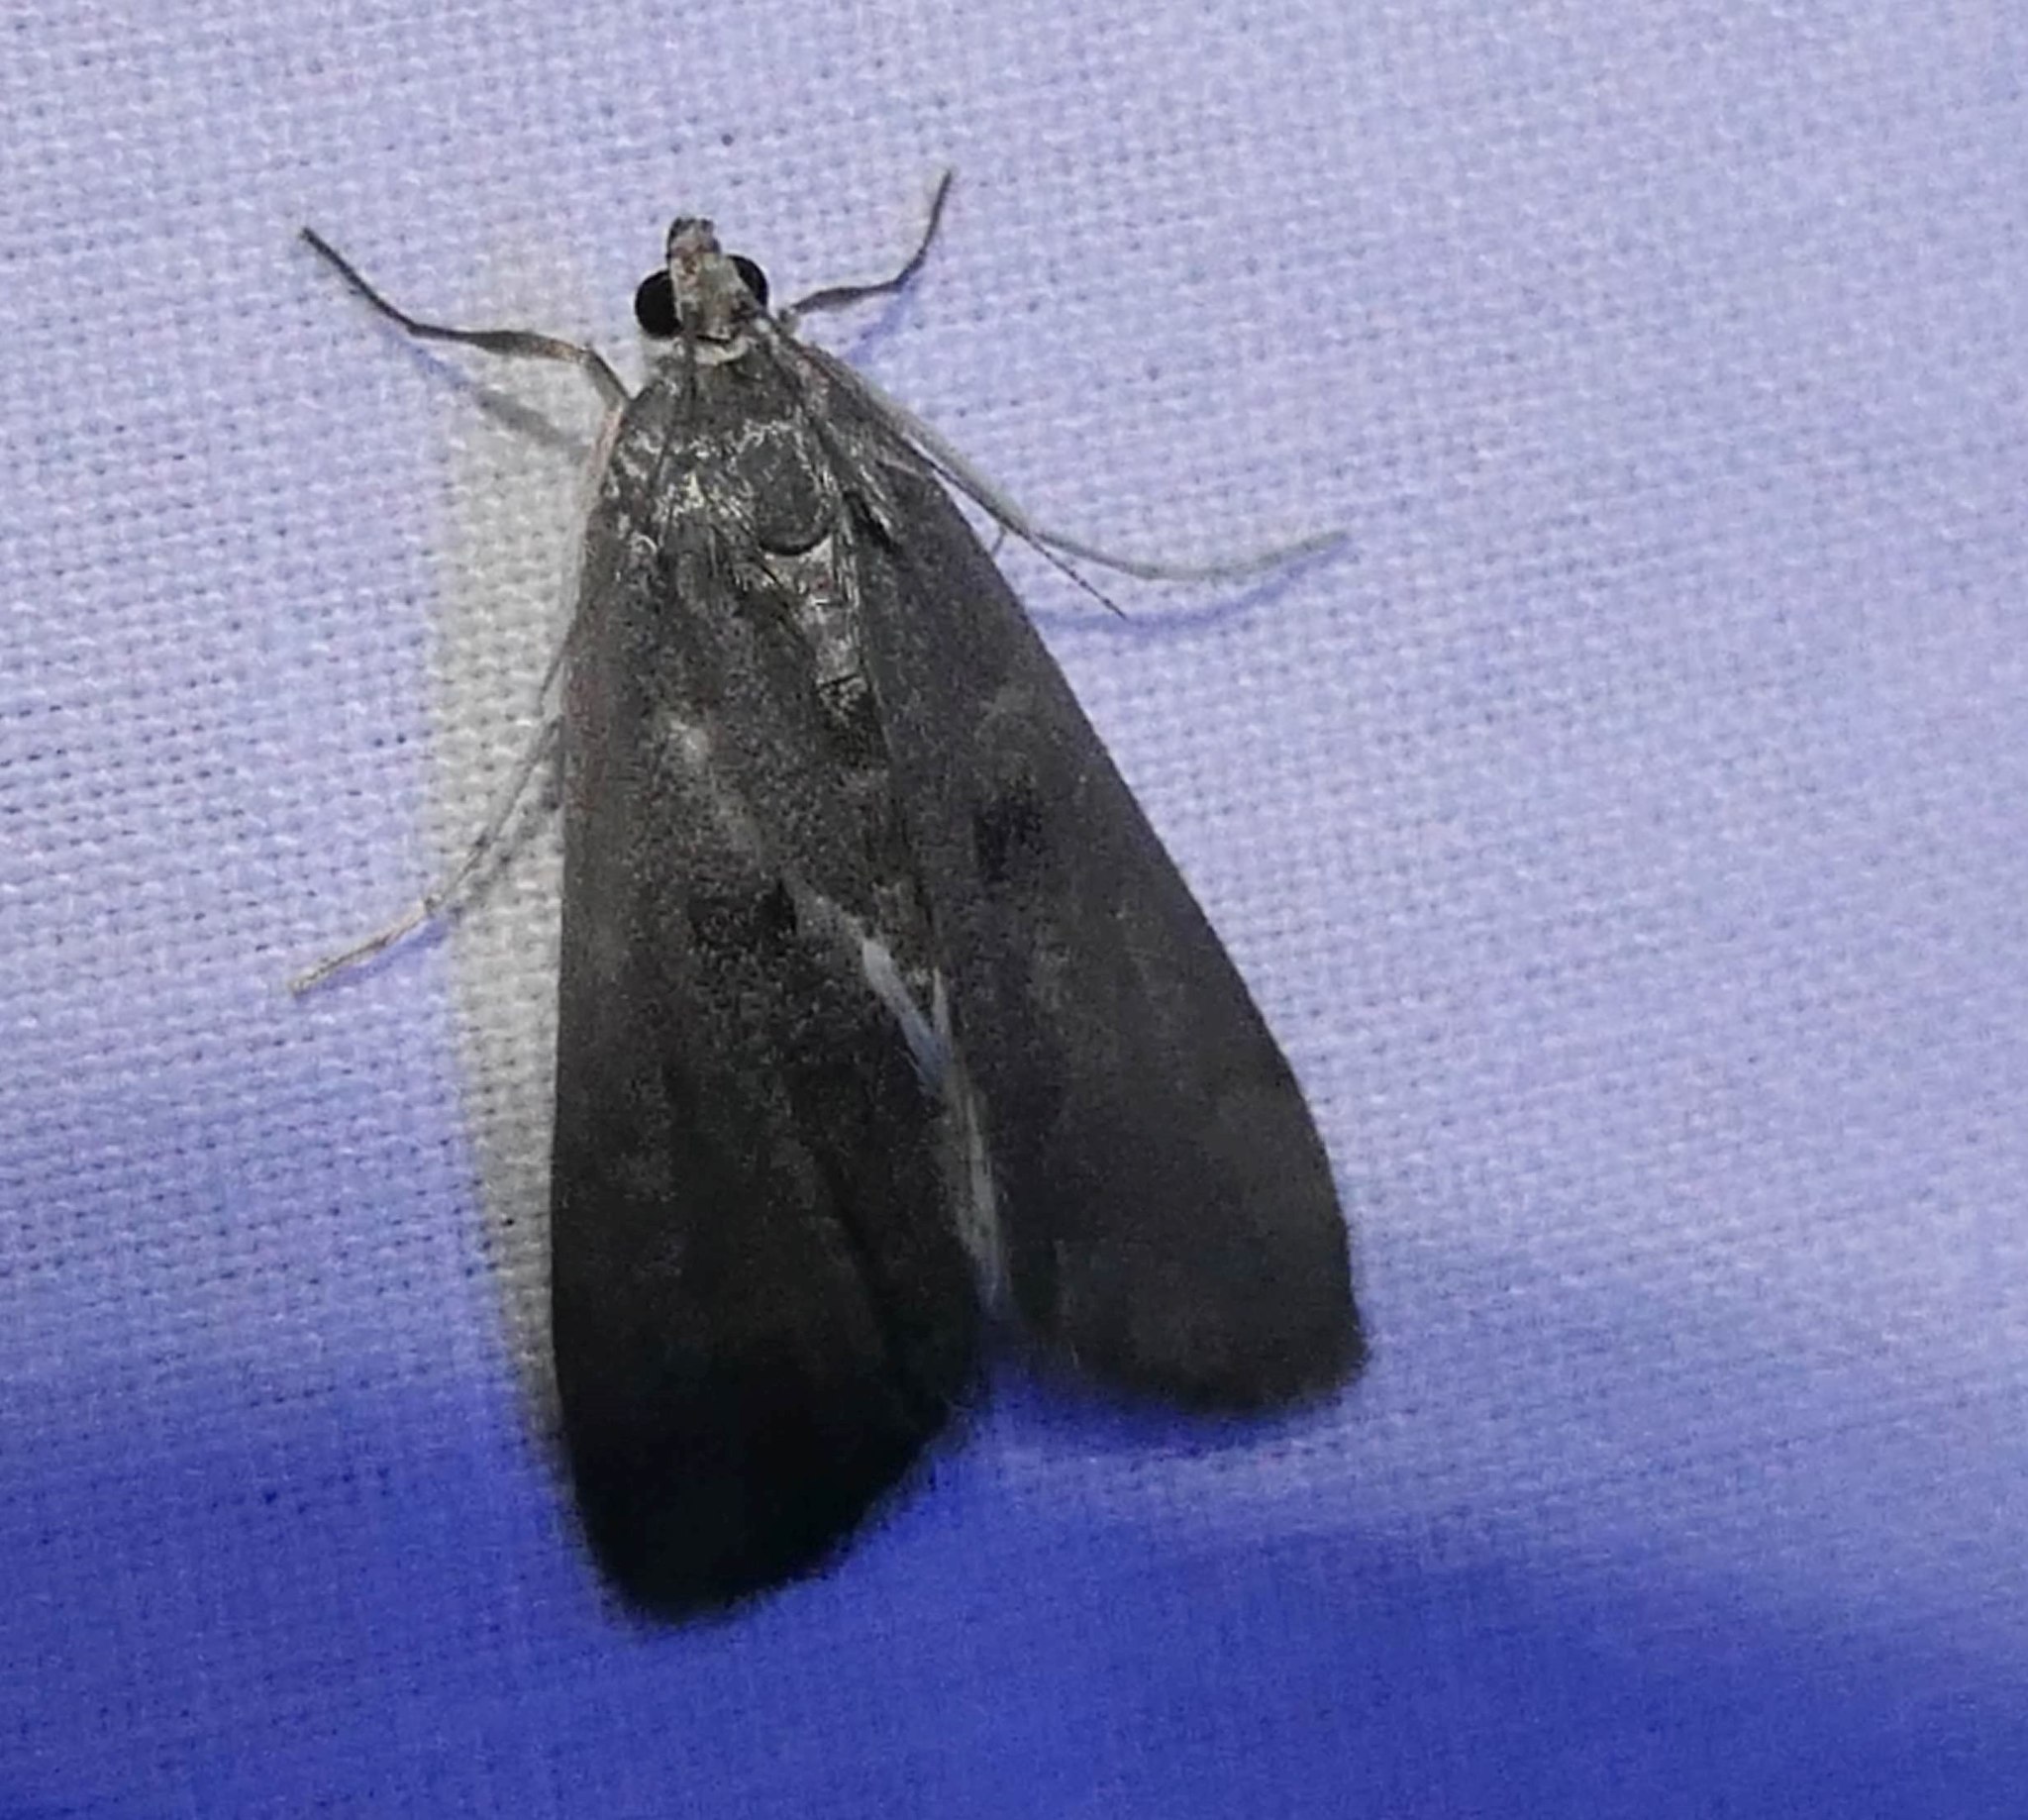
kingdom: Animalia
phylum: Arthropoda
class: Insecta
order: Lepidoptera
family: Crambidae
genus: Parapoynx
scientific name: Parapoynx maculalis
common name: Polymorphic pondweed moth
